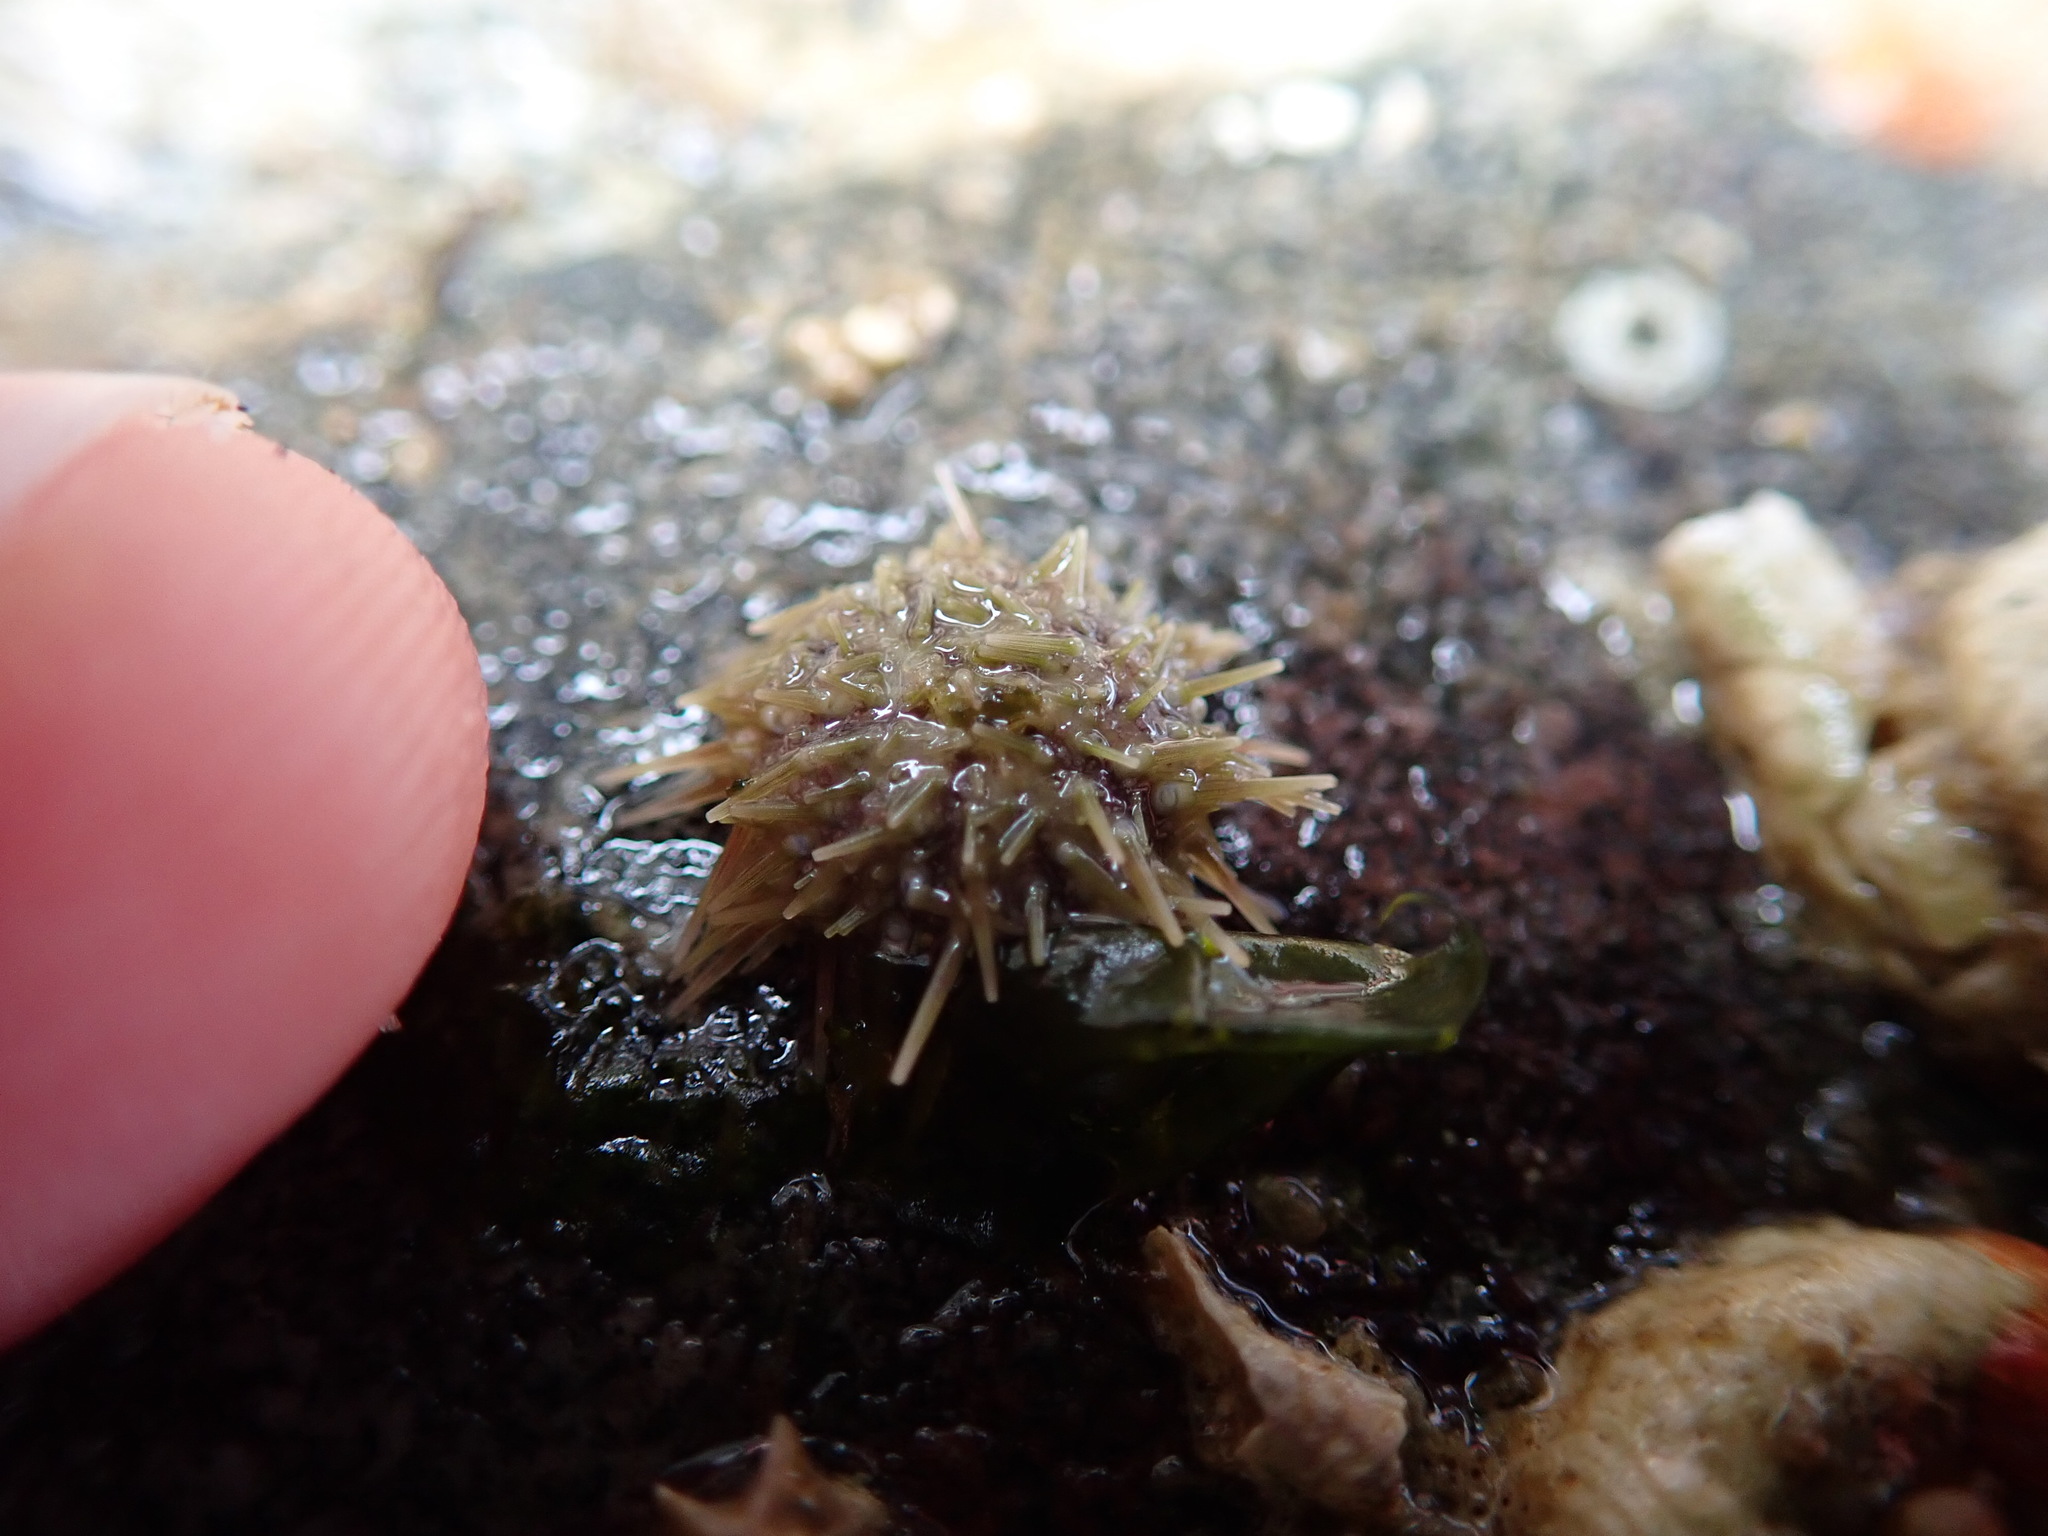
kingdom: Animalia
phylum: Echinodermata
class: Echinoidea
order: Camarodonta
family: Strongylocentrotidae
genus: Strongylocentrotus
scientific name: Strongylocentrotus droebachiensis
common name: Northern sea urchin
